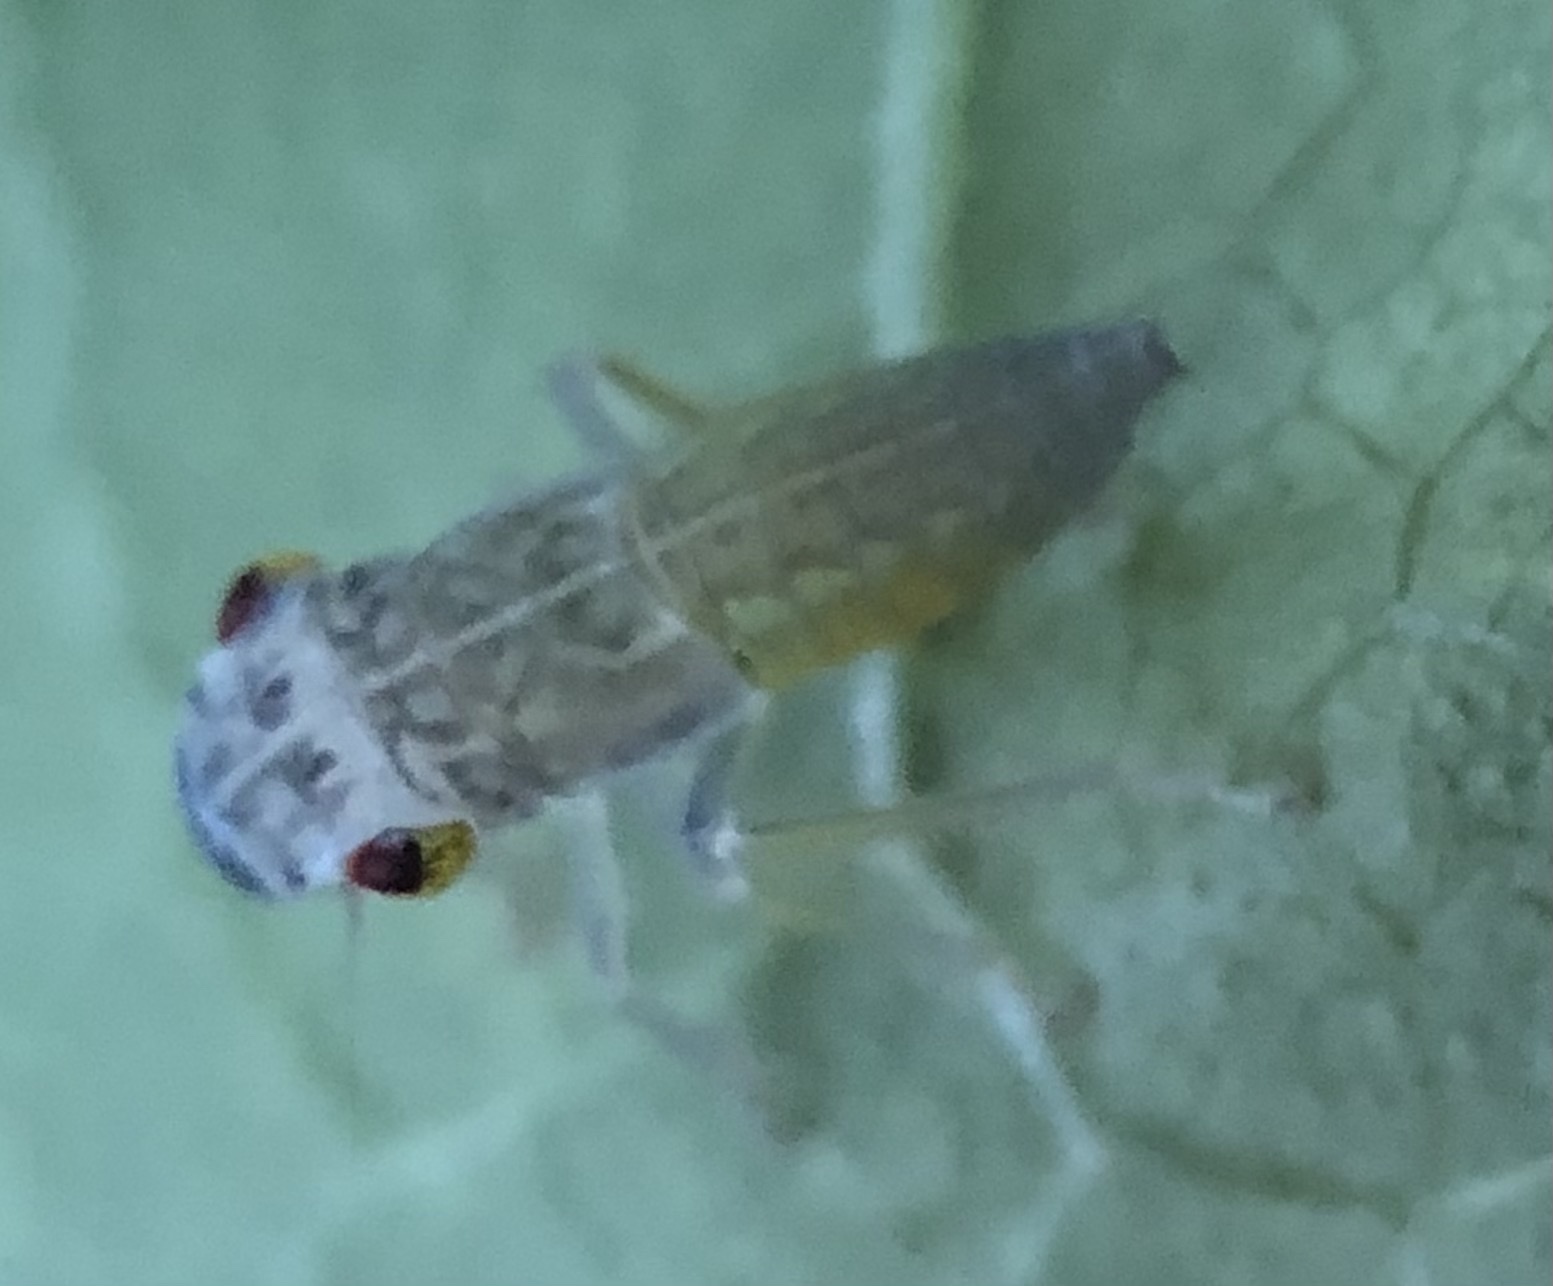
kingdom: Animalia
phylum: Arthropoda
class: Insecta
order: Hemiptera
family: Cicadellidae
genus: Oncometopia
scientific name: Oncometopia orbona
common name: Broad-headed sharpshooter
